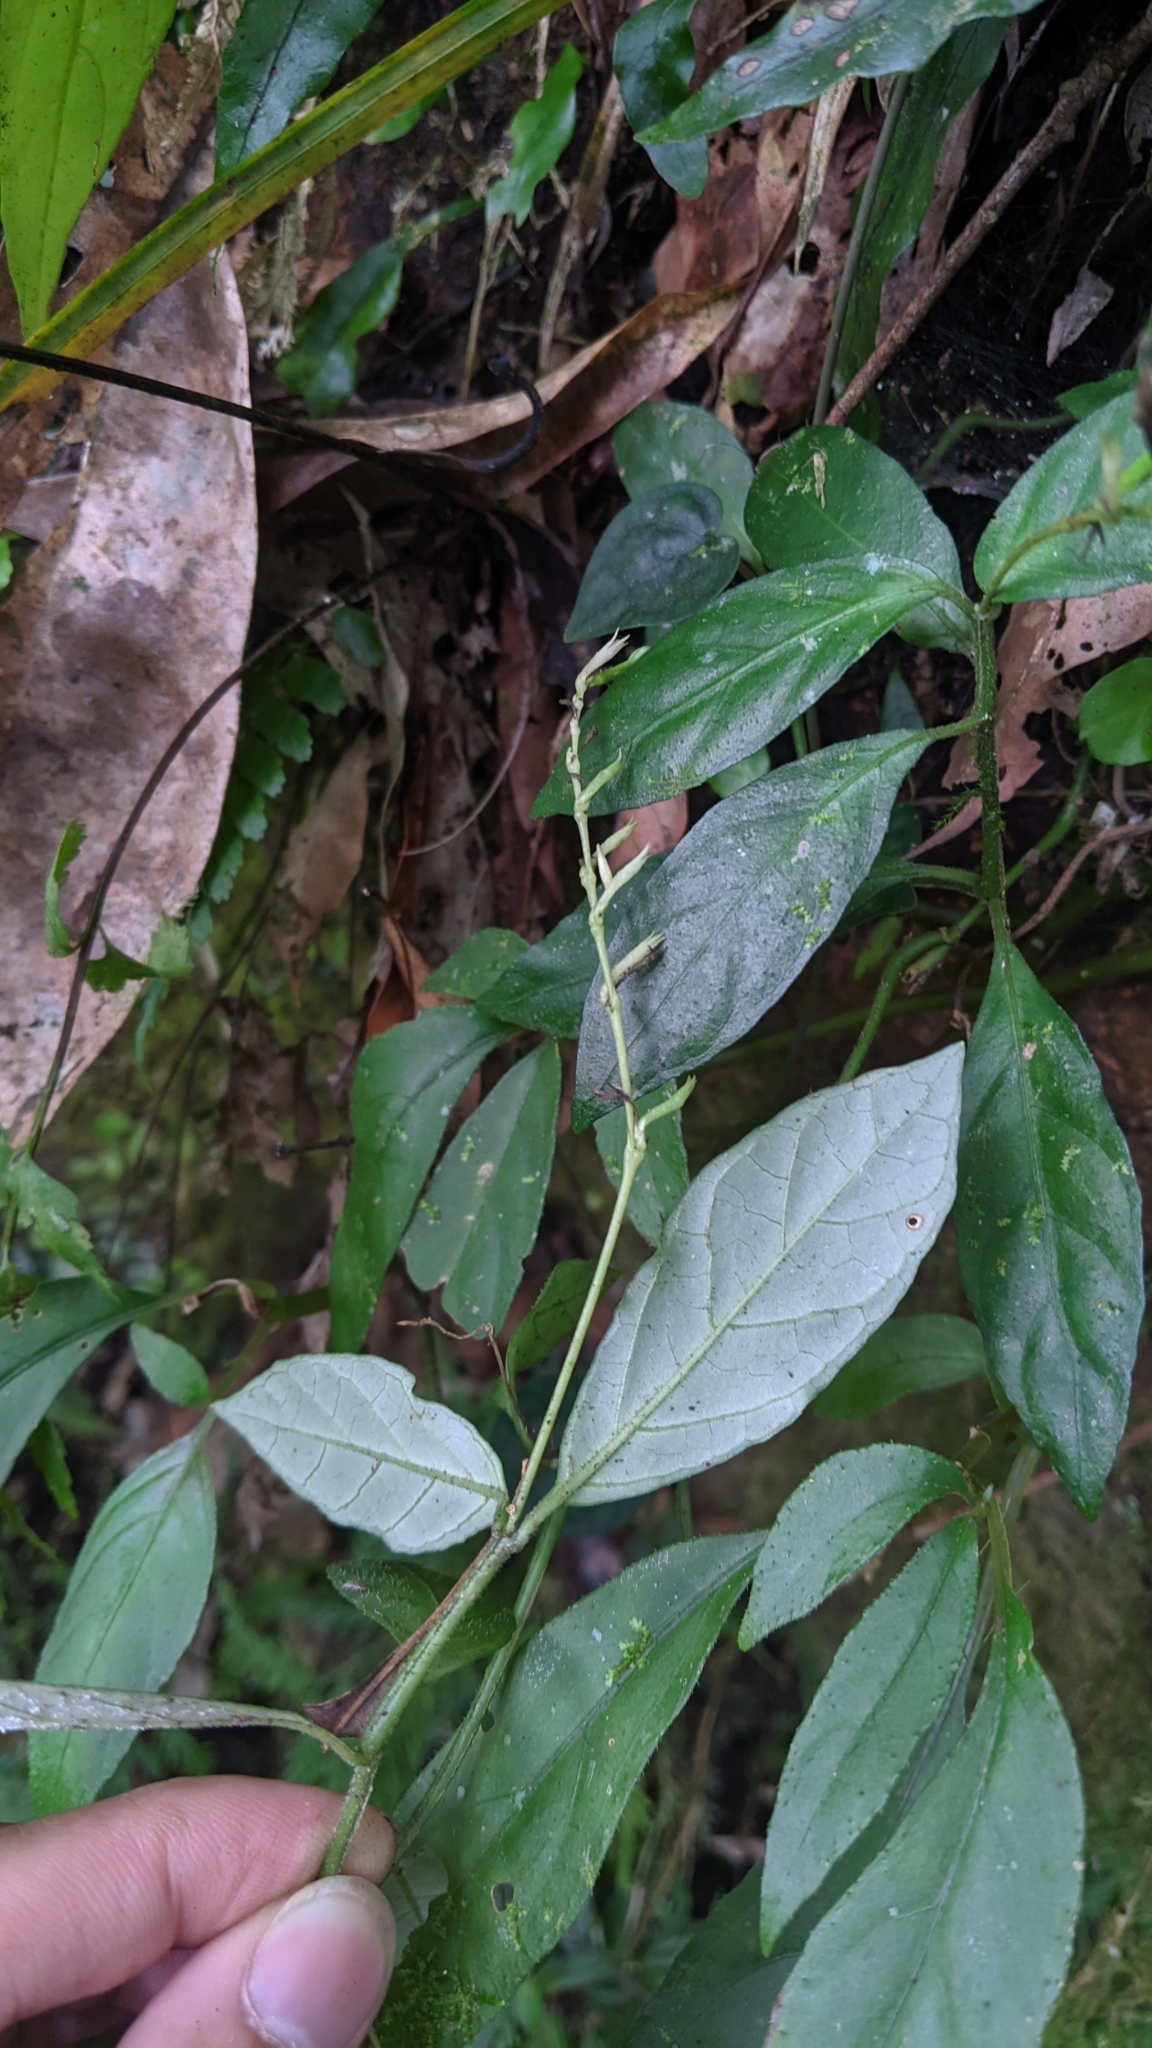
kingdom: Plantae
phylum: Tracheophyta
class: Magnoliopsida
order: Lamiales
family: Acanthaceae
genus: Codonacanthus
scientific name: Codonacanthus pauciflorus
